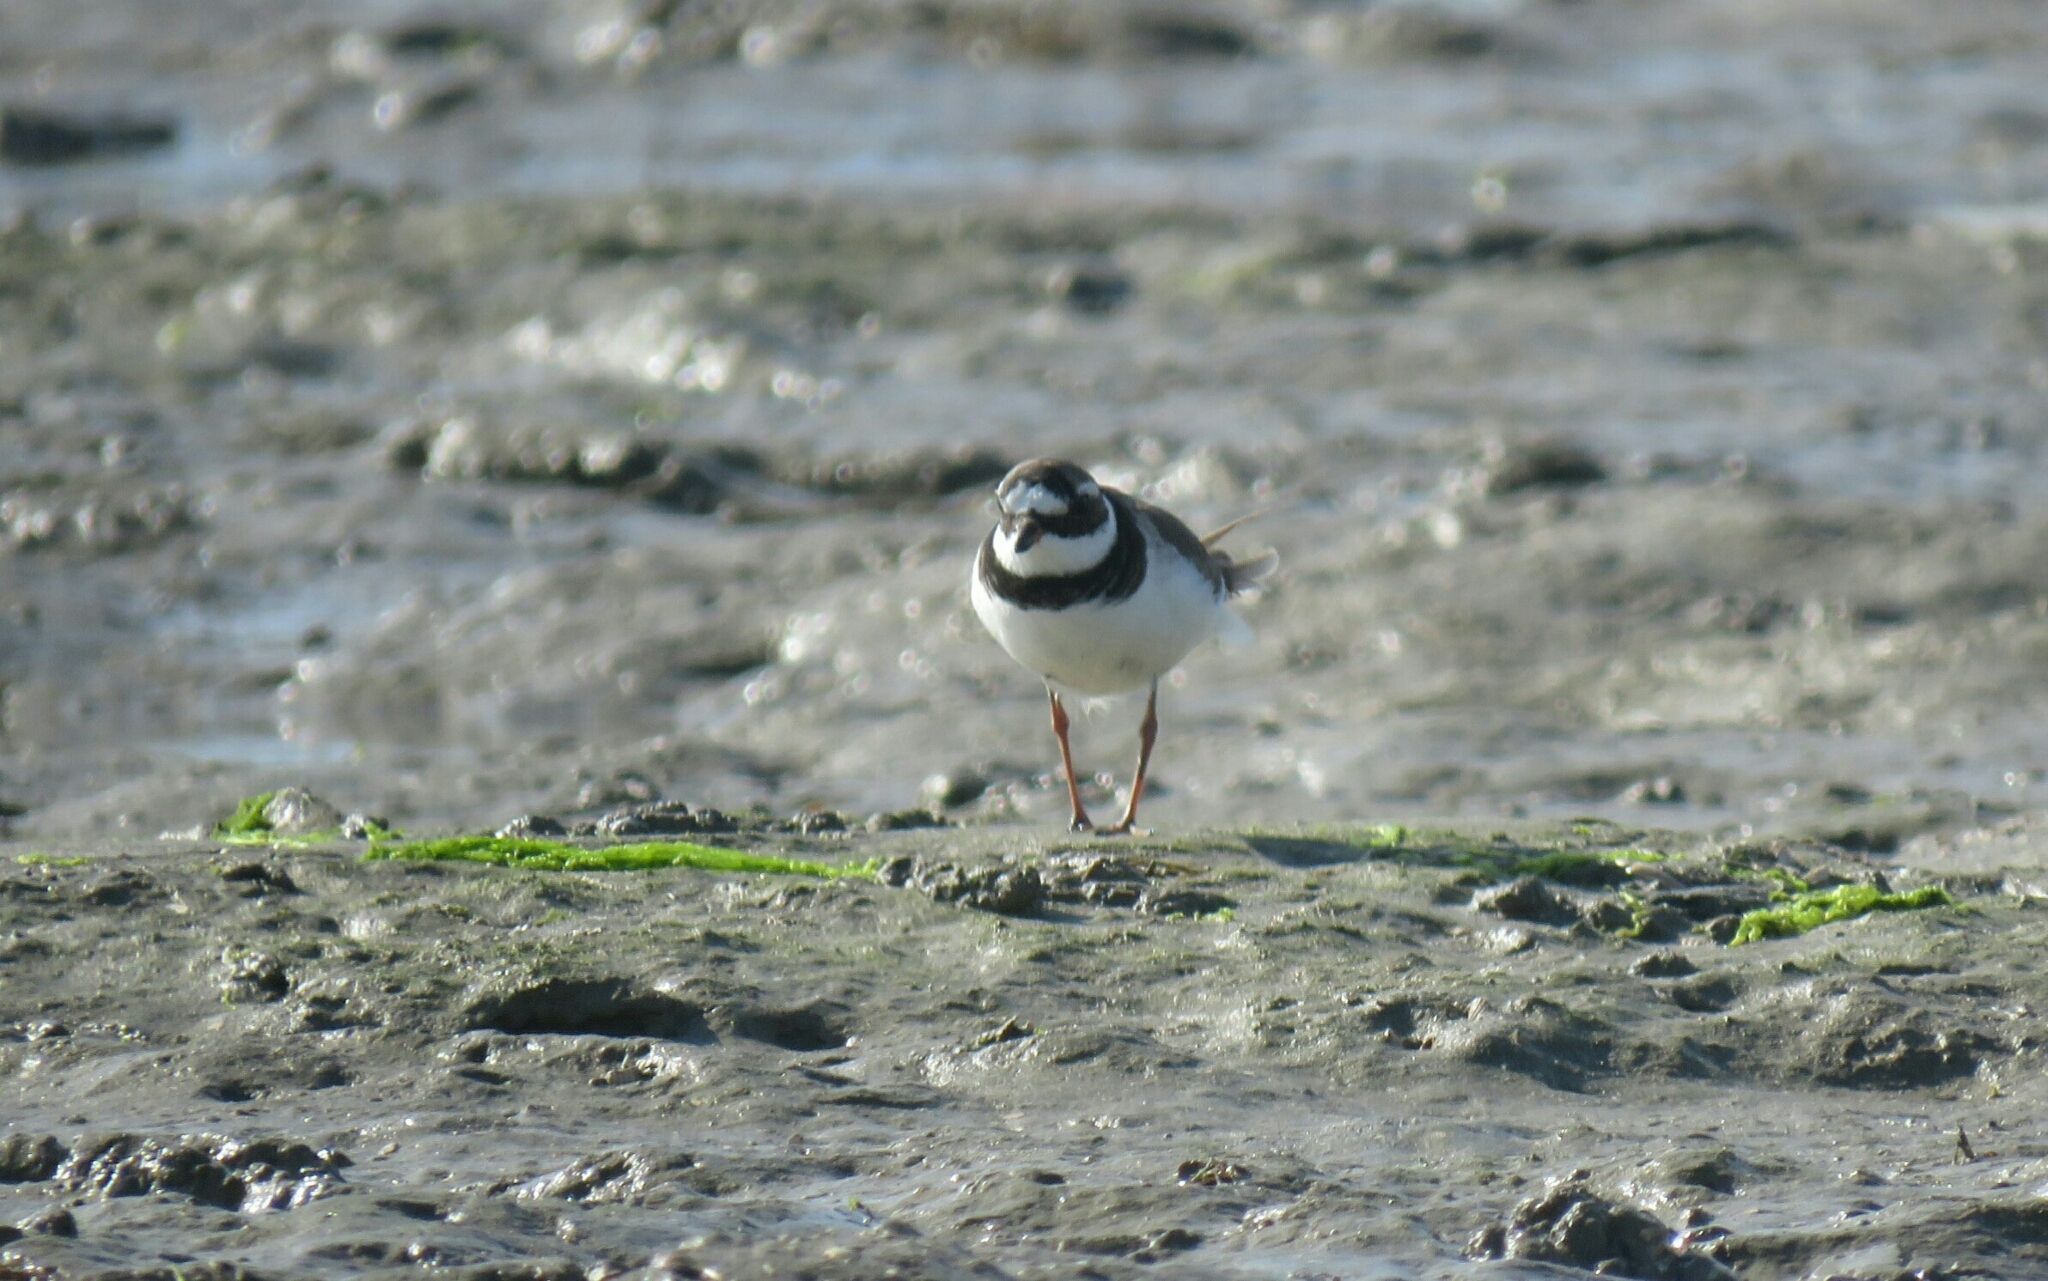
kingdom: Animalia
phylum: Chordata
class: Aves
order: Charadriiformes
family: Charadriidae
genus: Charadrius
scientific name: Charadrius hiaticula
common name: Common ringed plover
